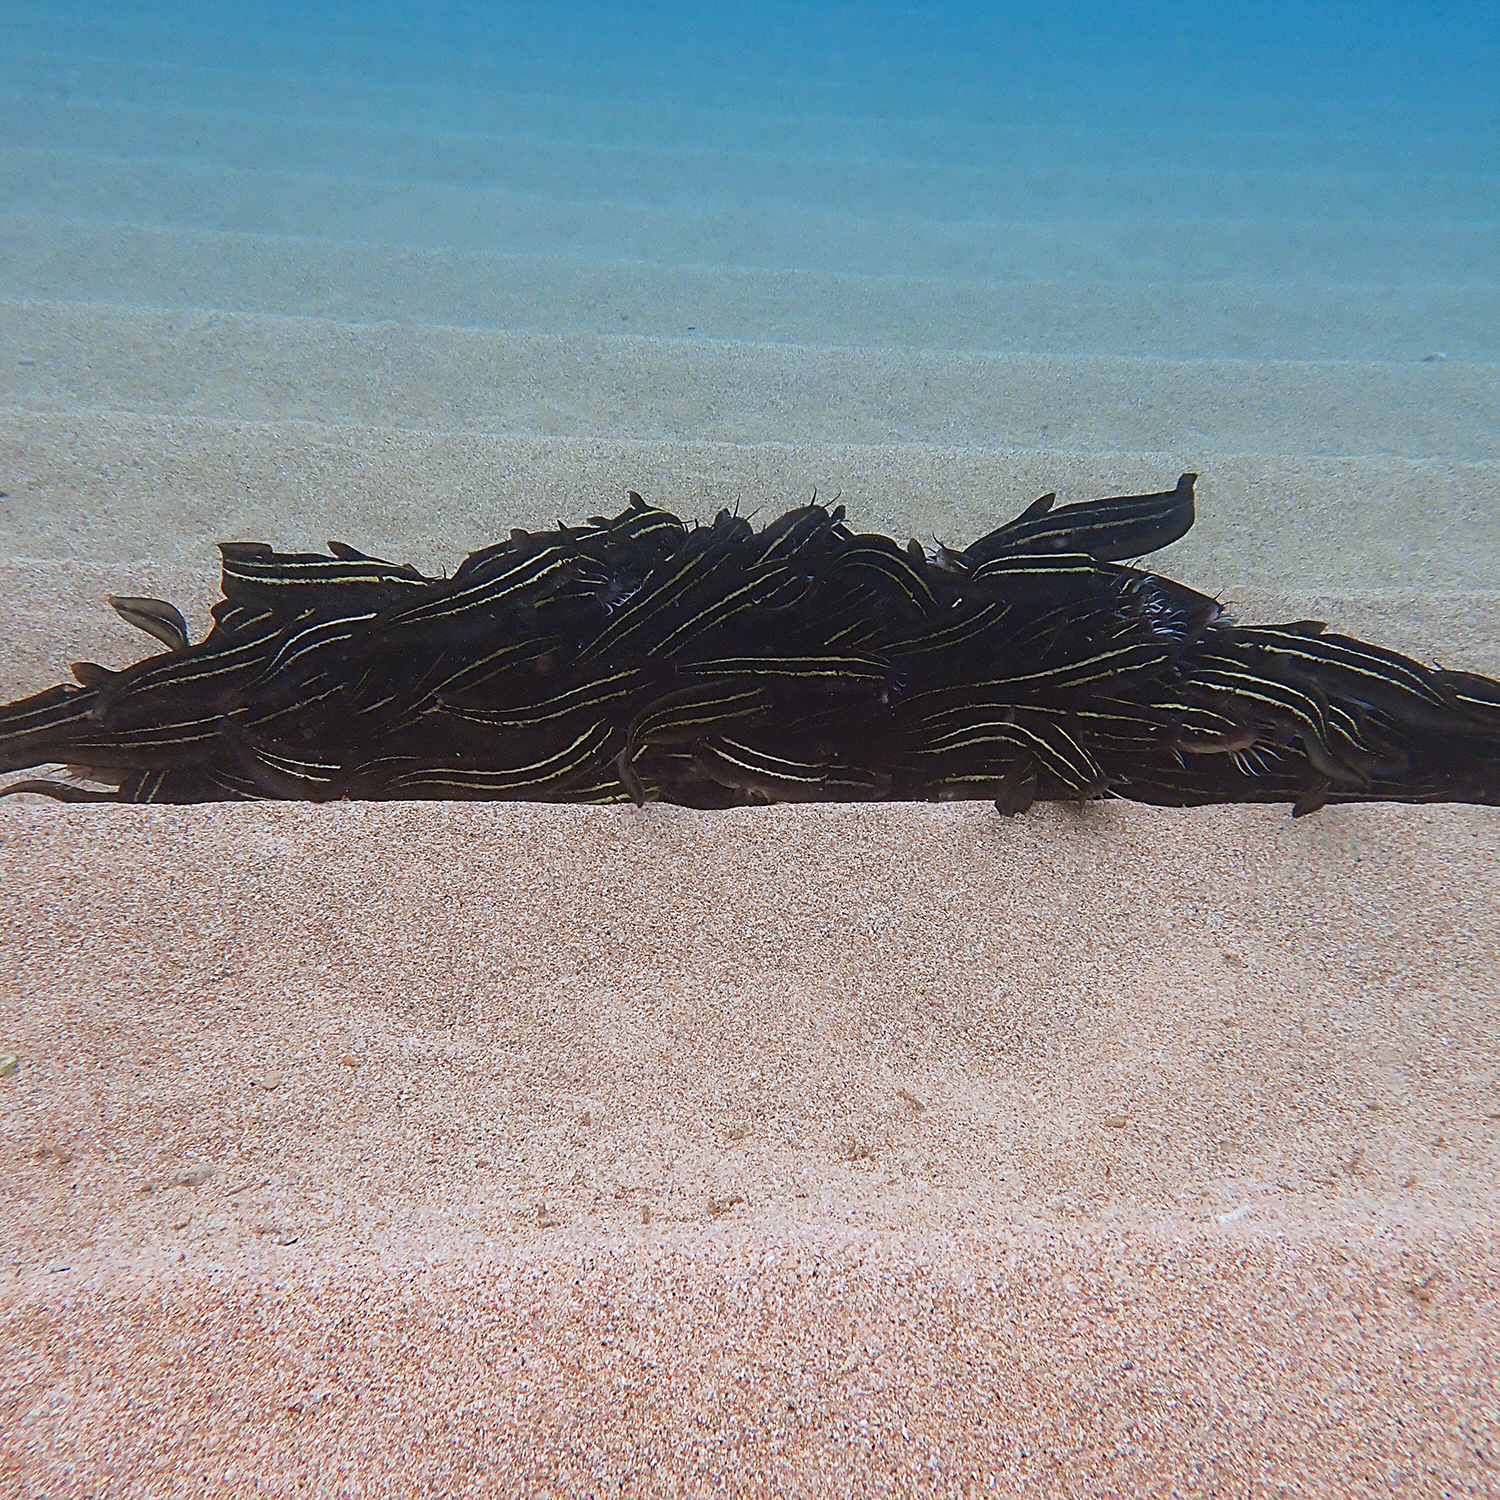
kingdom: Animalia
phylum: Chordata
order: Siluriformes
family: Plotosidae
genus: Plotosus
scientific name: Plotosus lineatus
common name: Striped eel catfish
